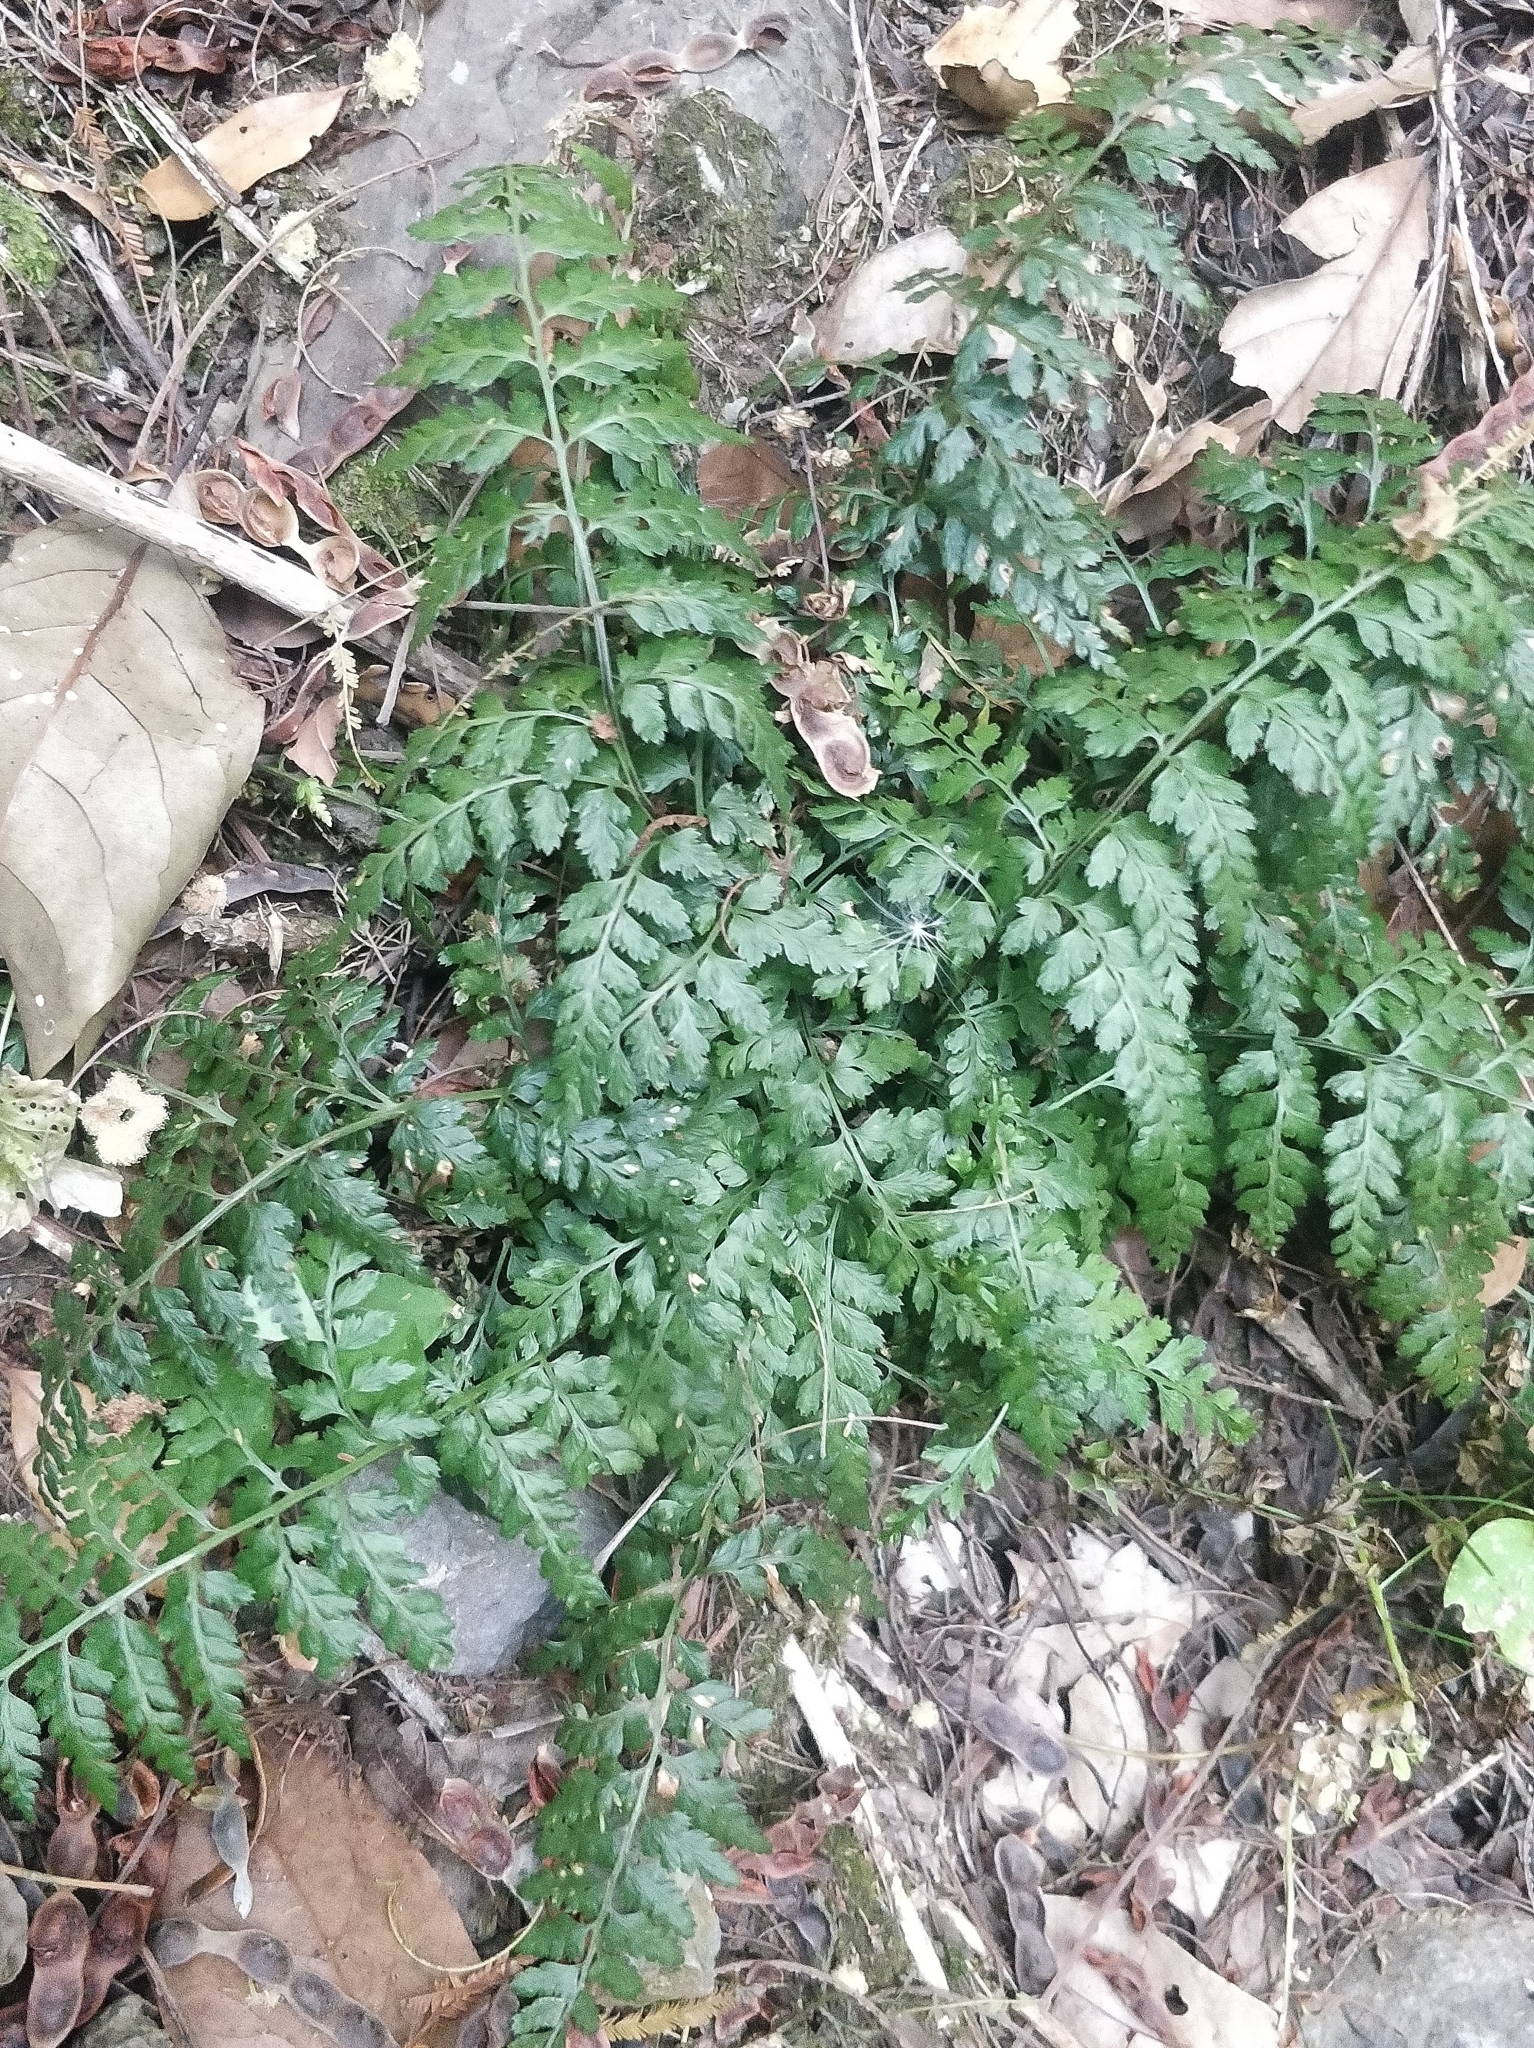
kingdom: Plantae
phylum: Tracheophyta
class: Polypodiopsida
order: Polypodiales
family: Aspleniaceae
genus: Asplenium
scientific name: Asplenium adiantum-nigrum
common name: Black spleenwort
